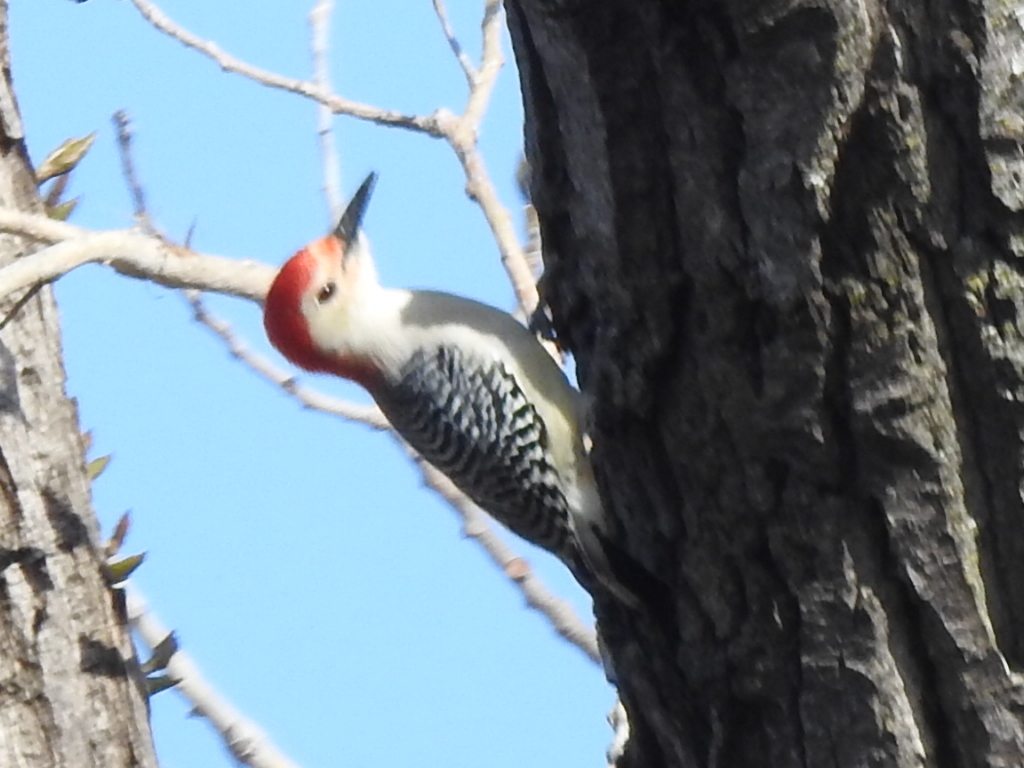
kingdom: Animalia
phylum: Chordata
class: Aves
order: Piciformes
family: Picidae
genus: Melanerpes
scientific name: Melanerpes carolinus
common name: Red-bellied woodpecker
